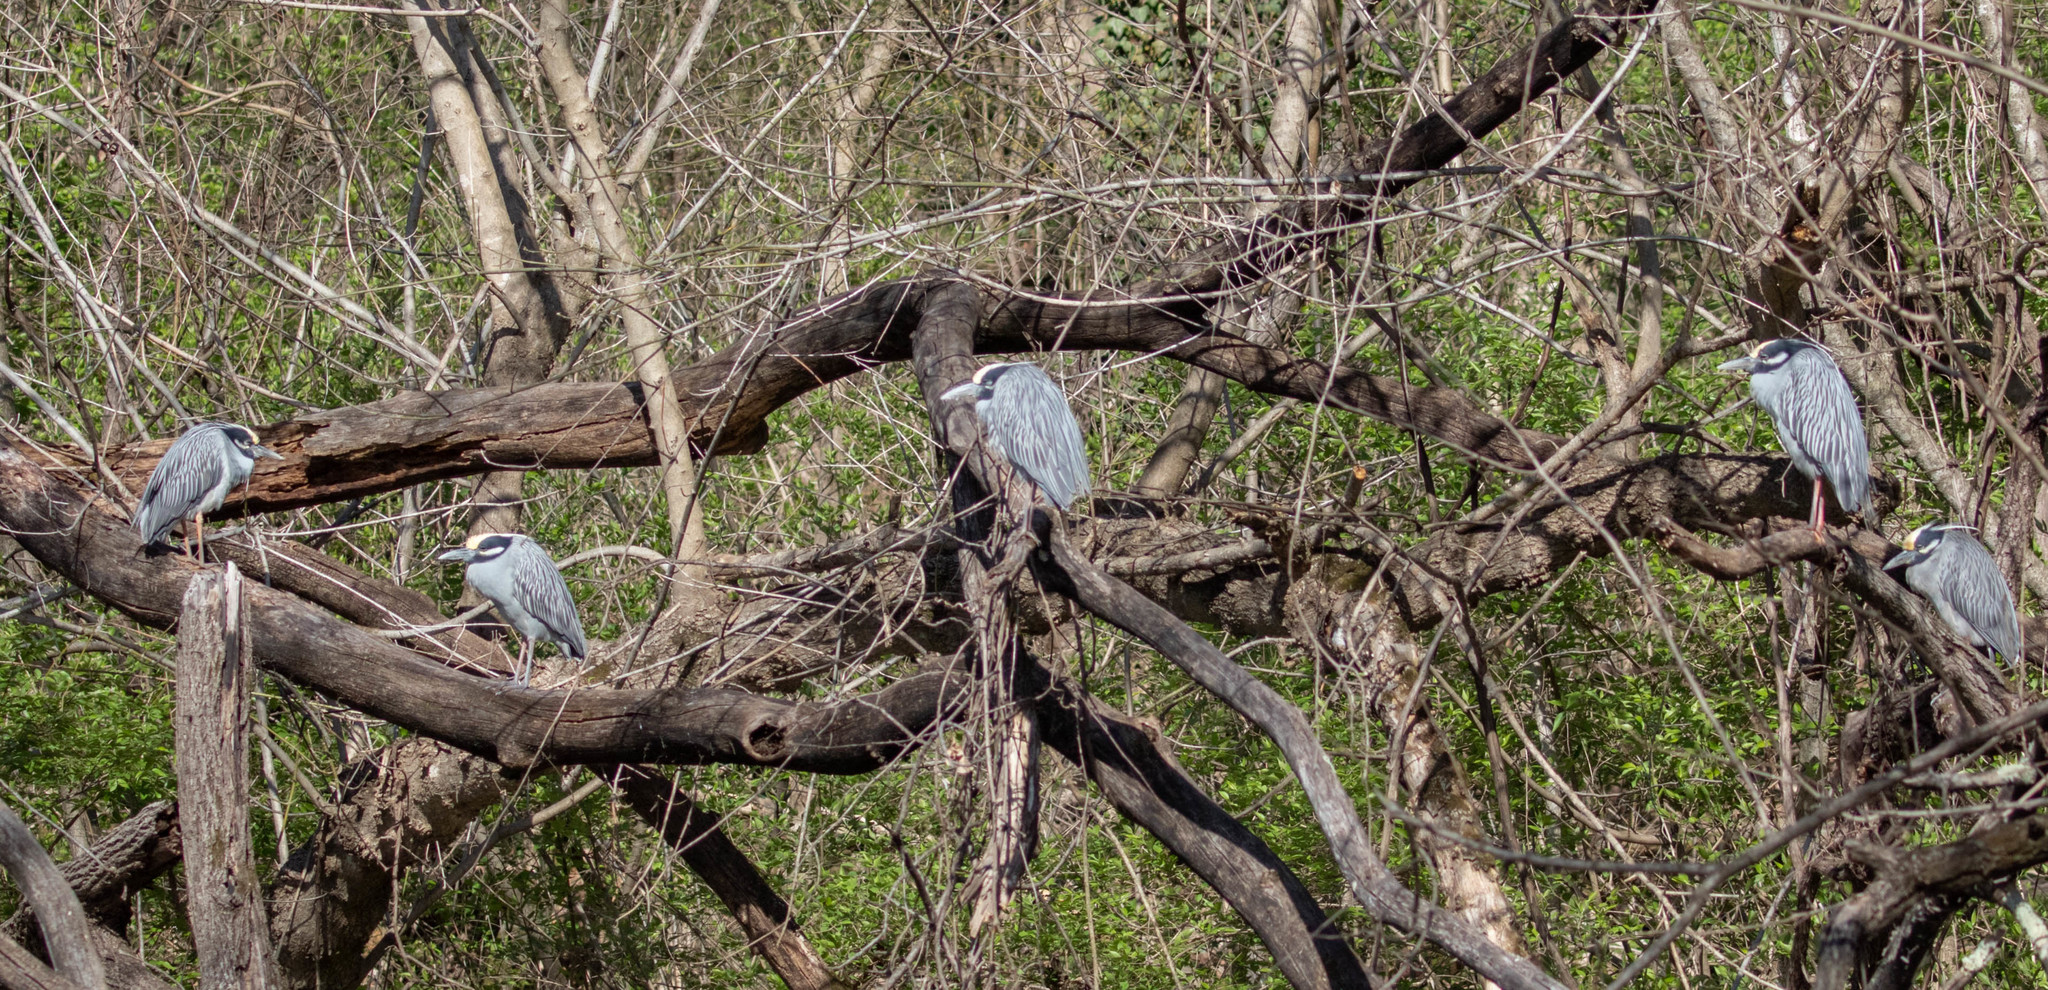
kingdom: Animalia
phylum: Chordata
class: Aves
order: Pelecaniformes
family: Ardeidae
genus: Nyctanassa
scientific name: Nyctanassa violacea
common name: Yellow-crowned night heron
